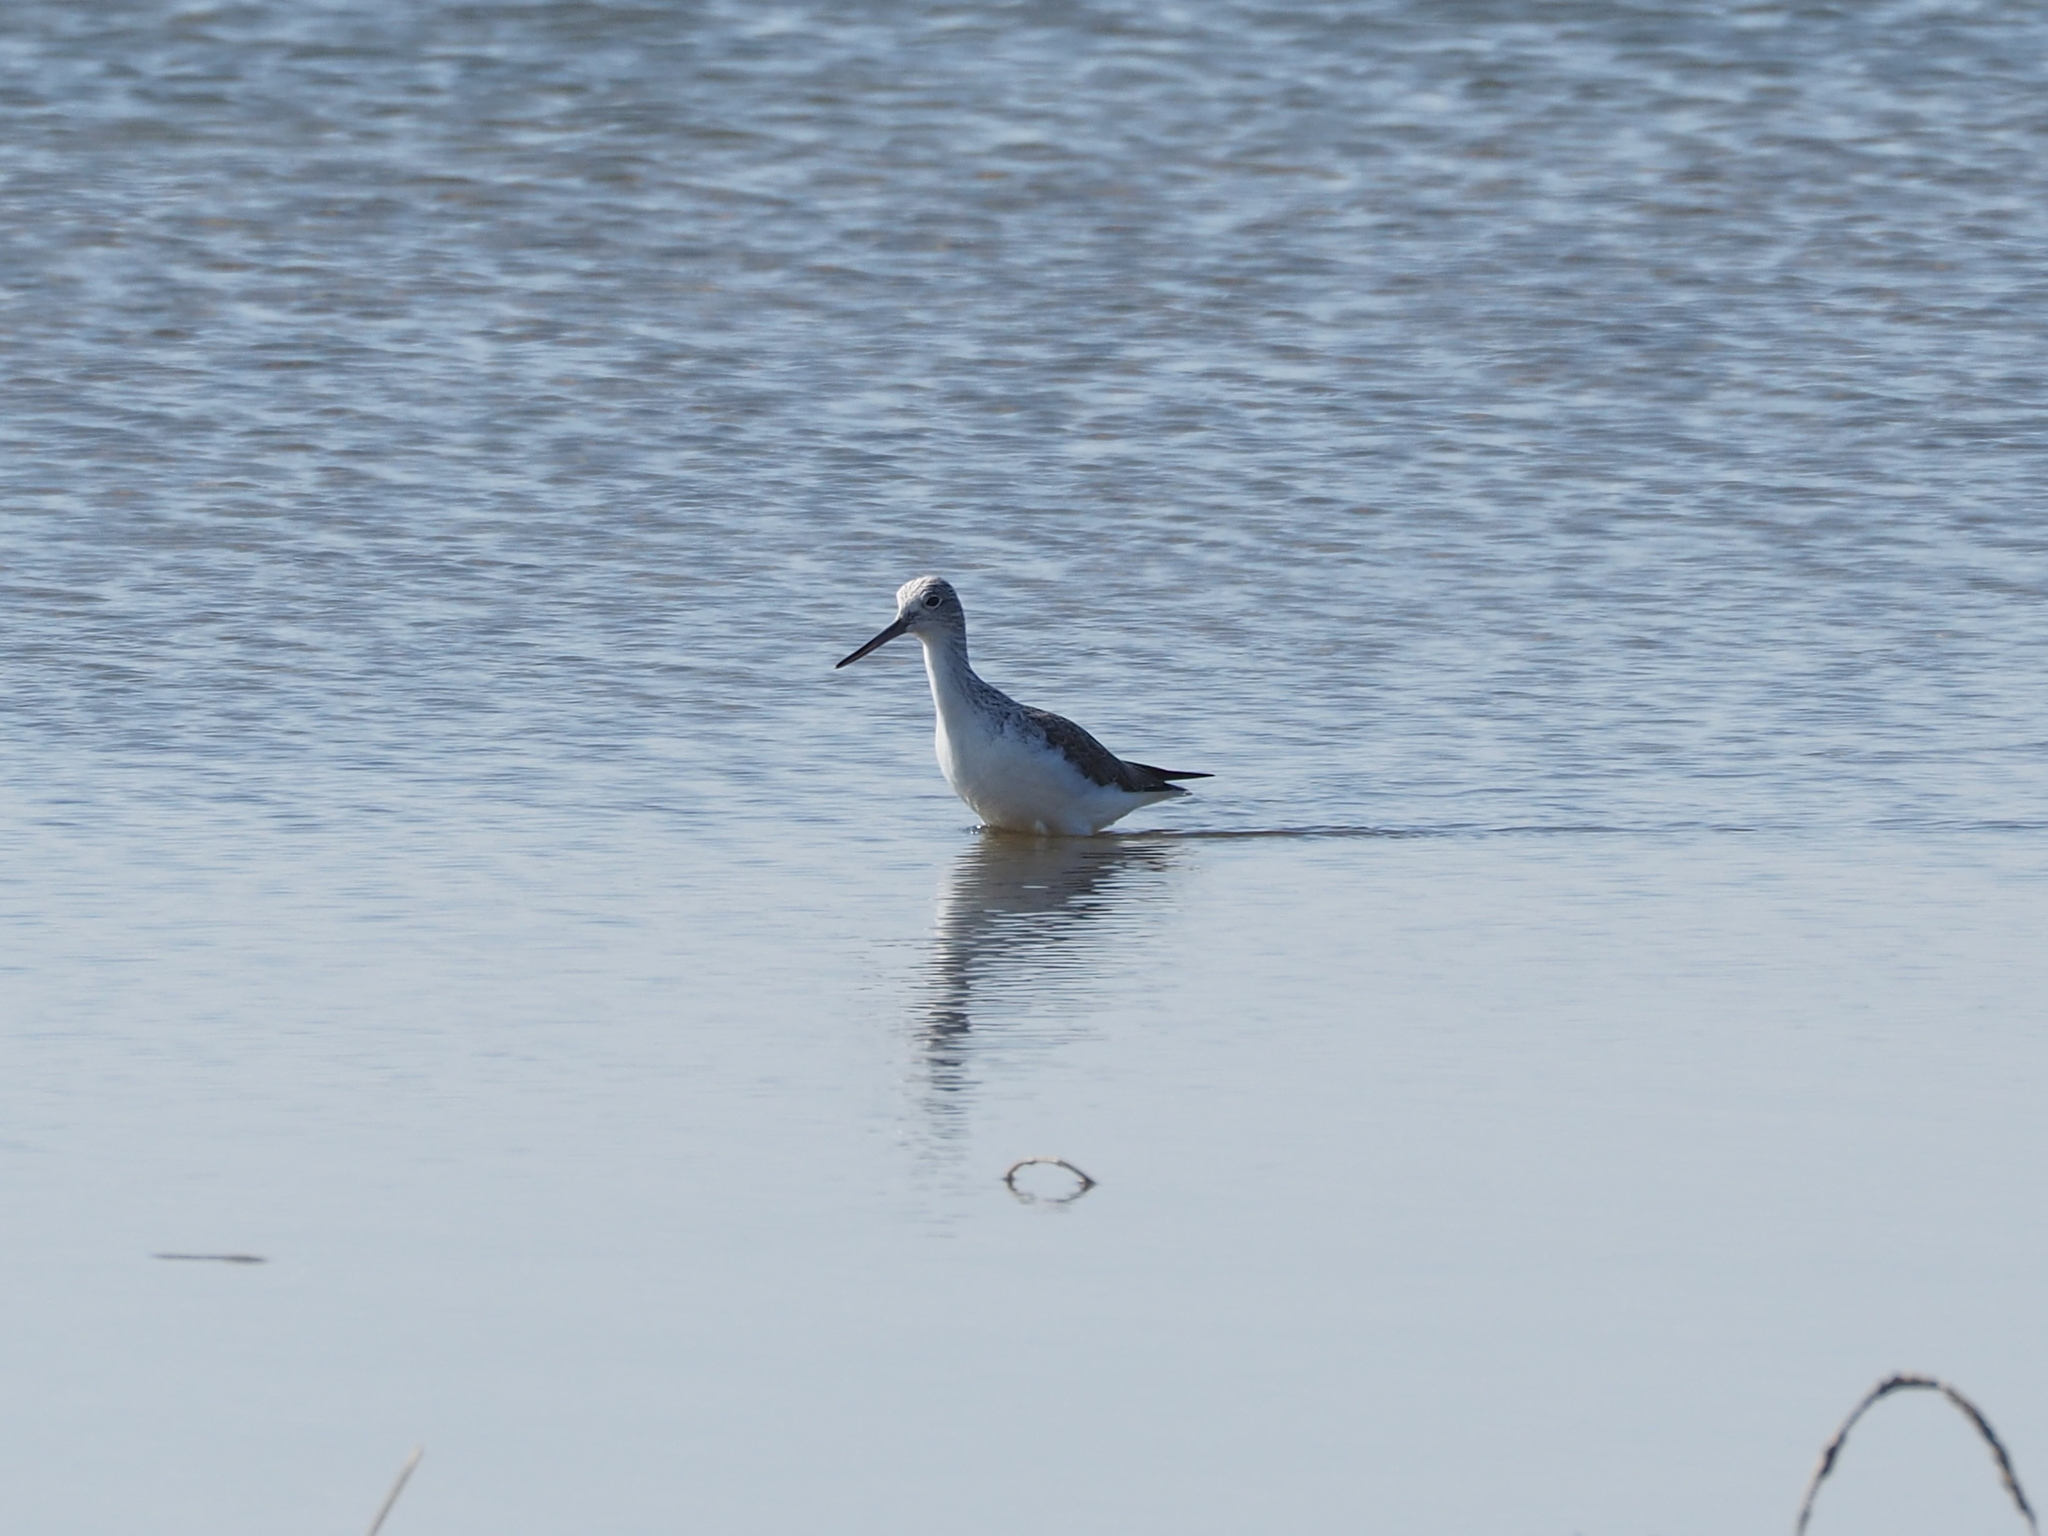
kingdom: Animalia
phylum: Chordata
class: Aves
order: Charadriiformes
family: Scolopacidae
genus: Tringa
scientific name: Tringa nebularia
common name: Common greenshank
